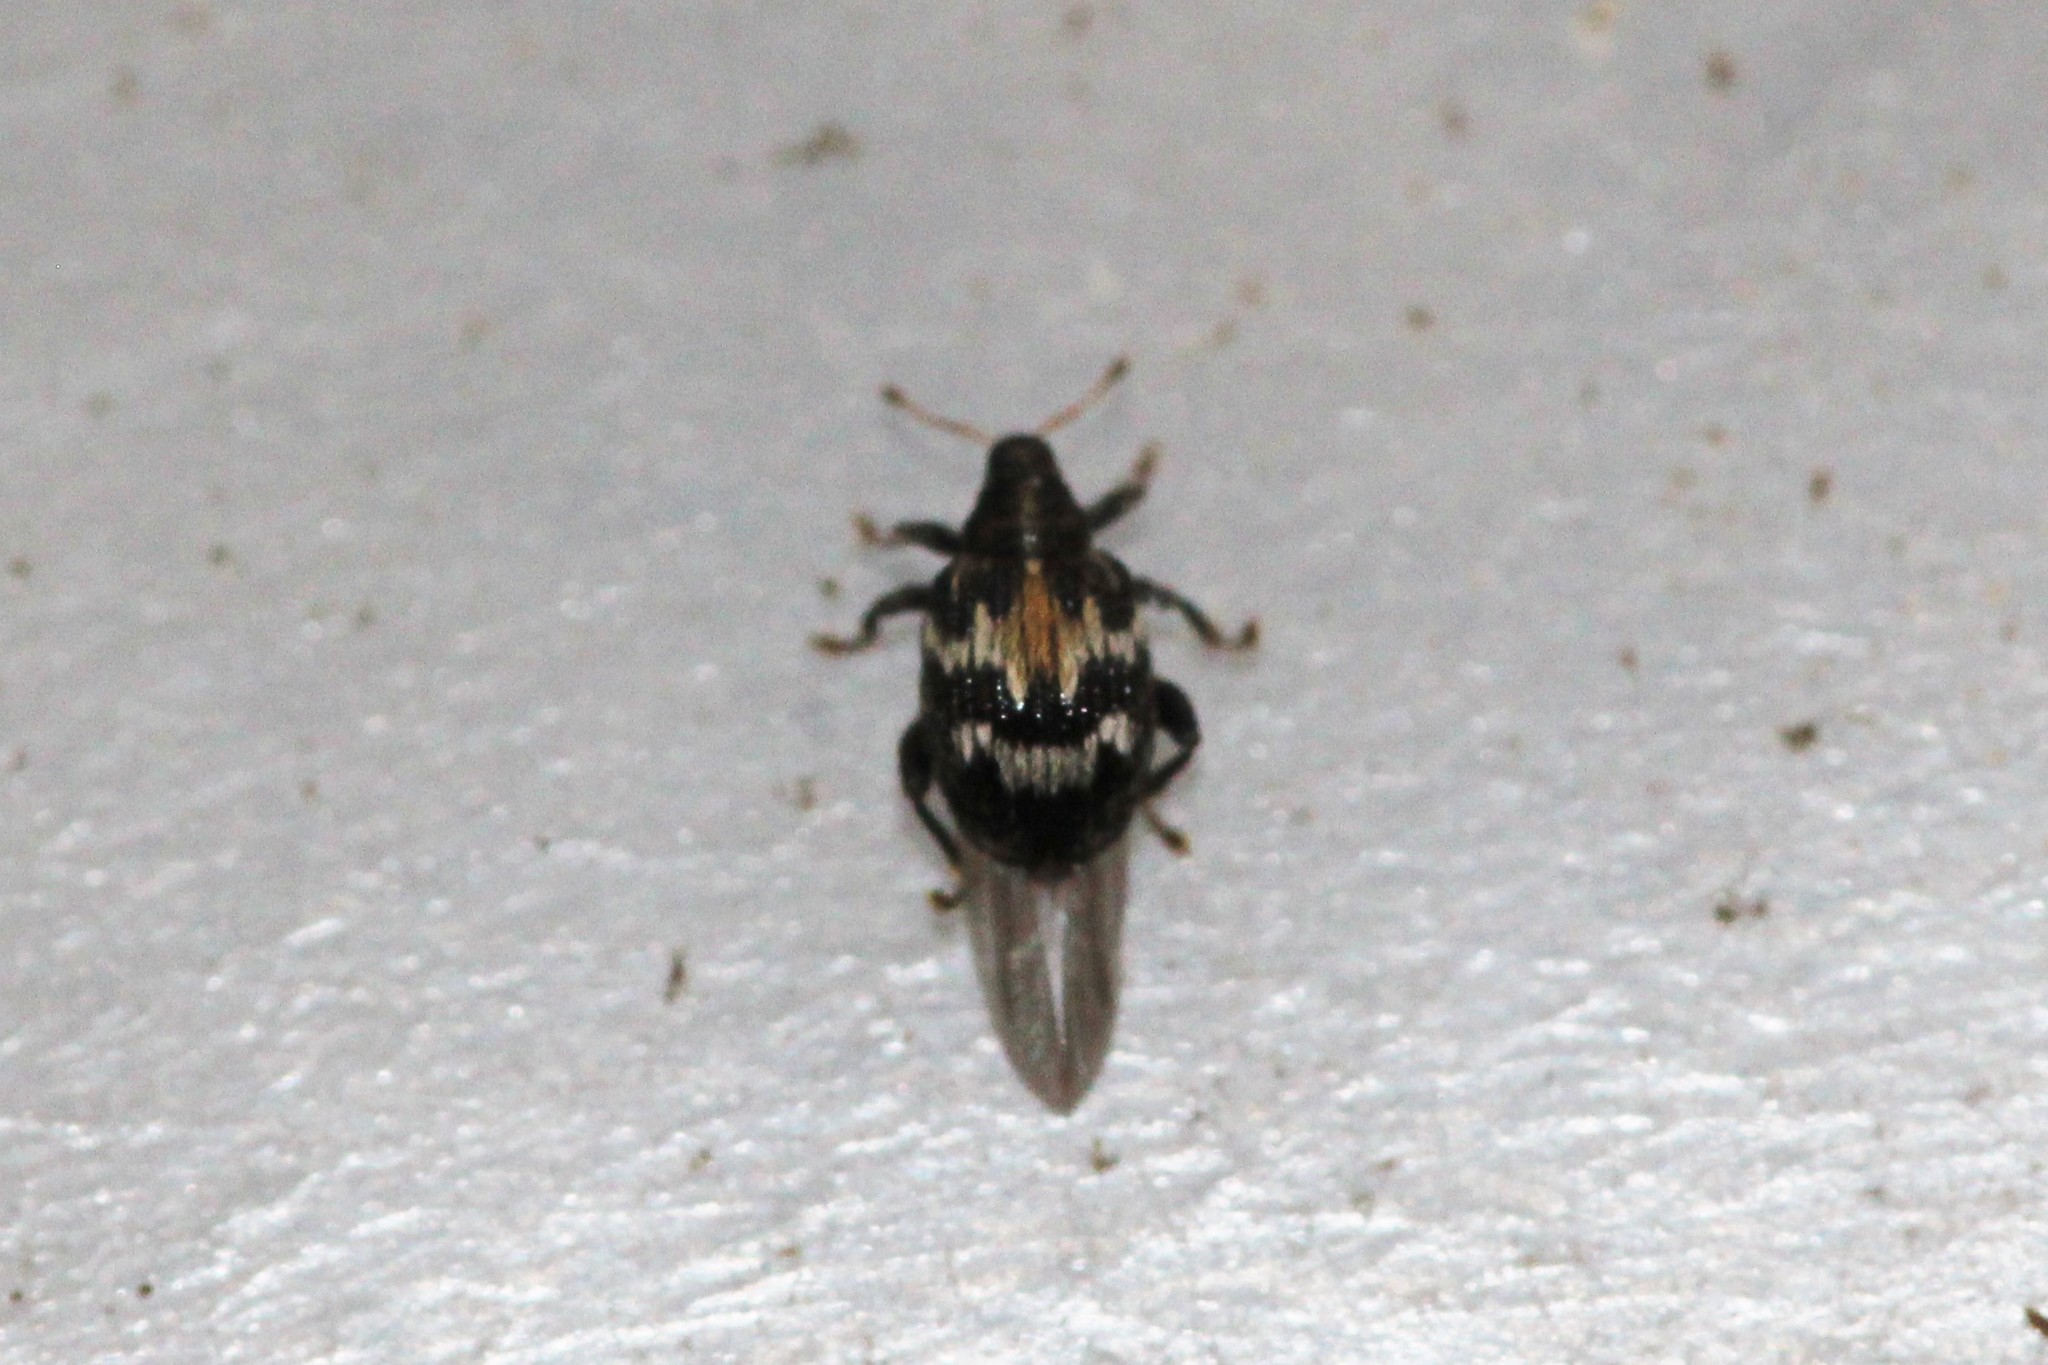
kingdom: Animalia
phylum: Arthropoda
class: Insecta
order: Coleoptera
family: Curculionidae
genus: Tachyerges
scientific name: Tachyerges salicis
